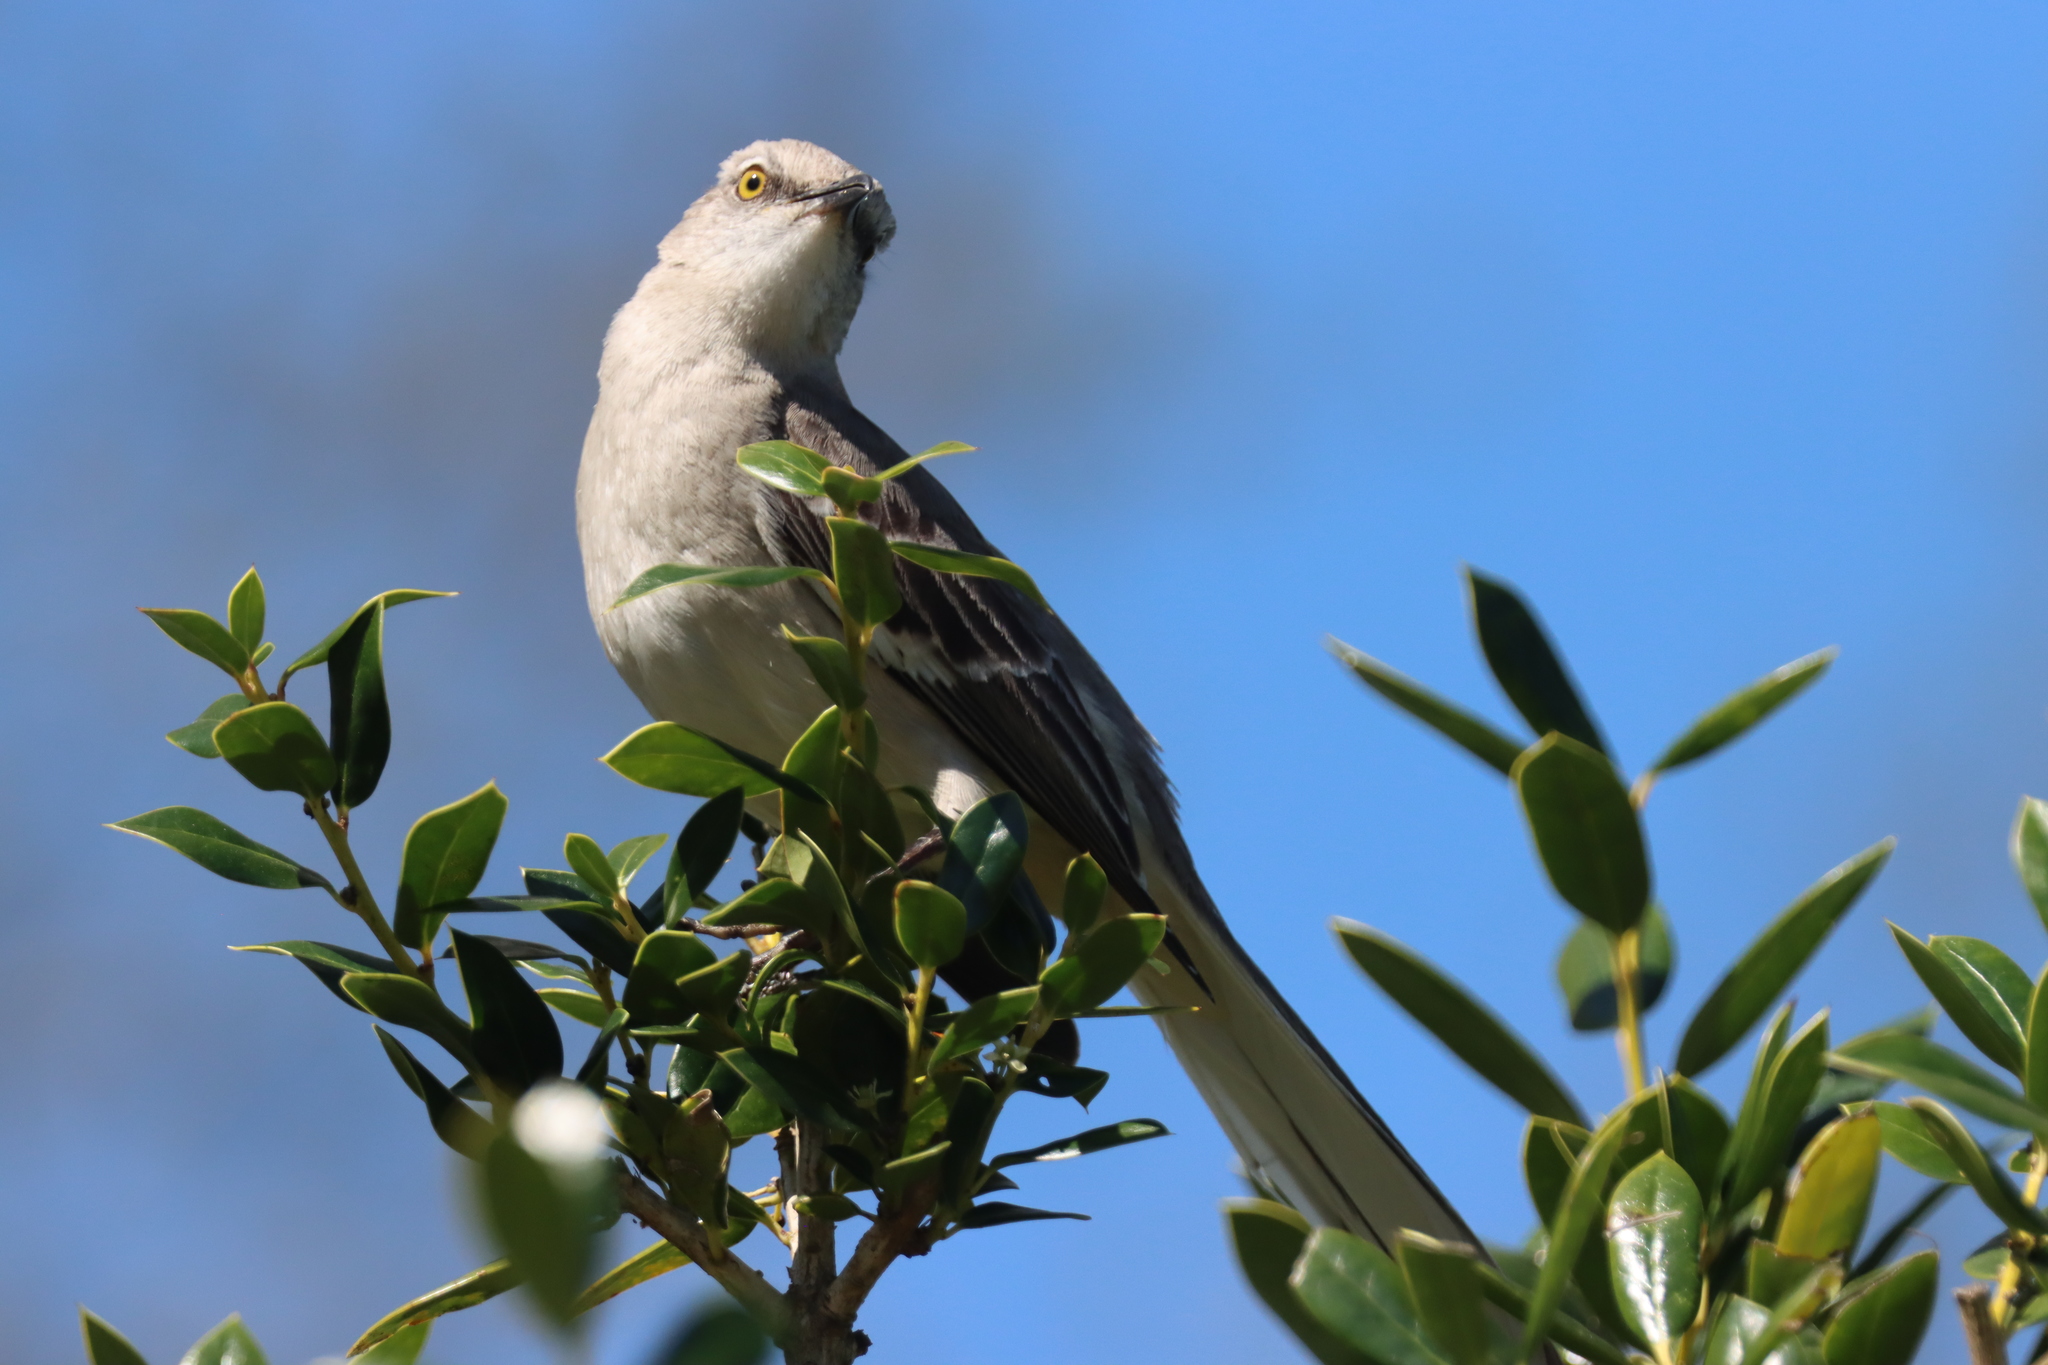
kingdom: Animalia
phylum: Chordata
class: Aves
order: Passeriformes
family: Mimidae
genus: Mimus
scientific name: Mimus polyglottos
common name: Northern mockingbird
